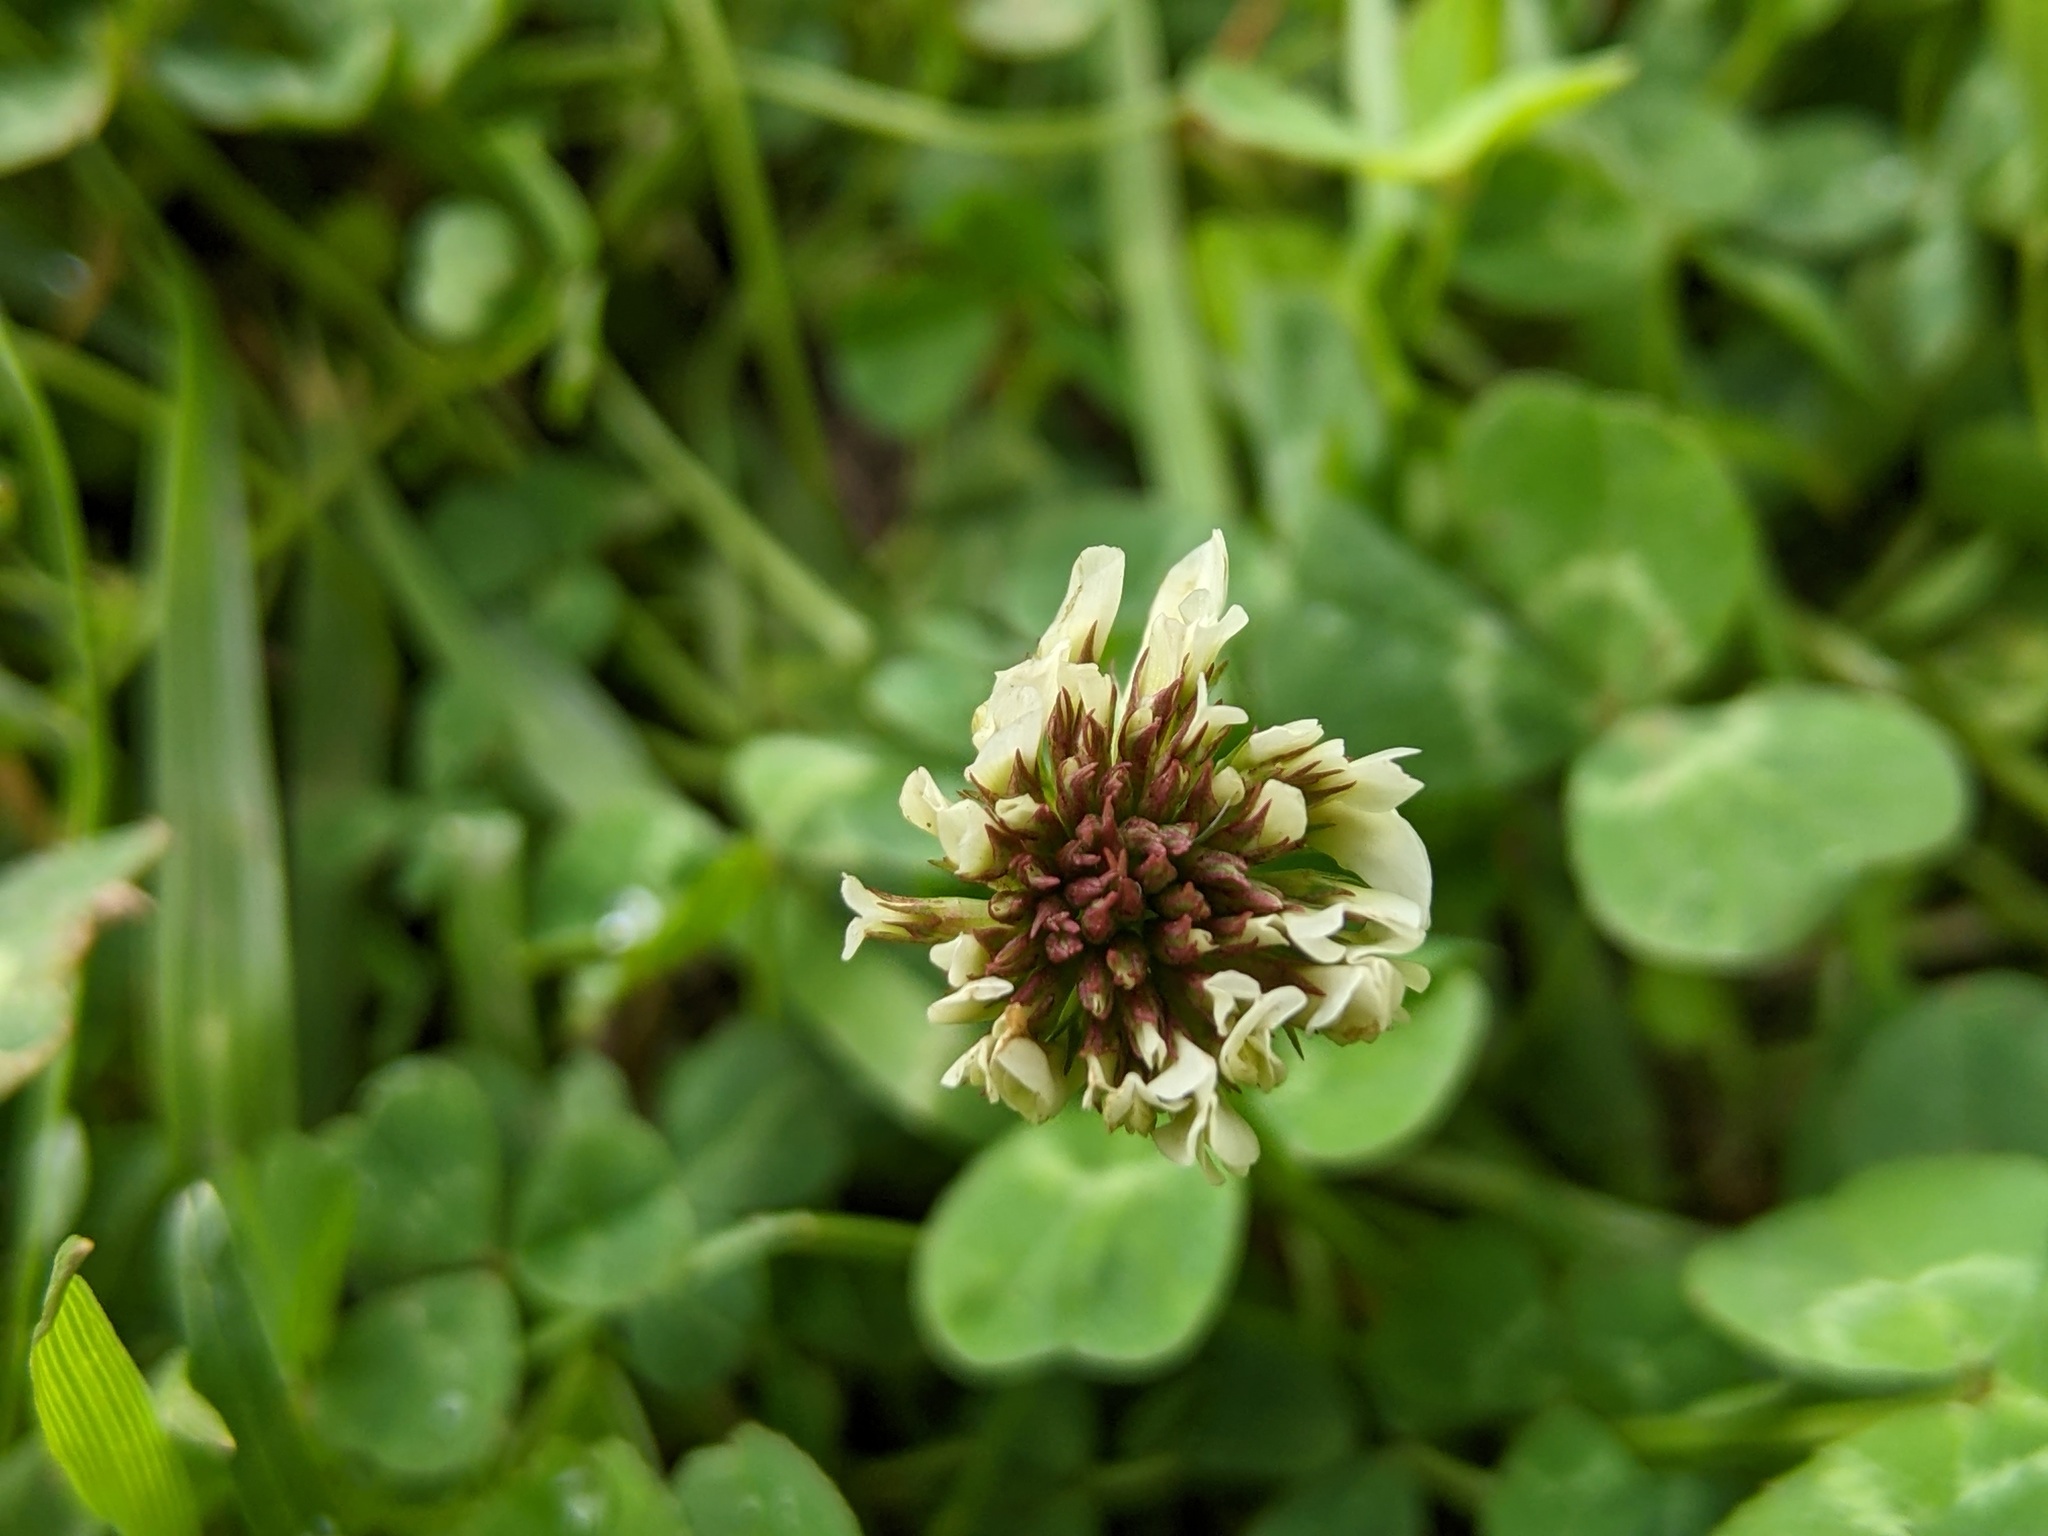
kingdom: Plantae
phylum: Tracheophyta
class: Magnoliopsida
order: Fabales
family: Fabaceae
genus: Trifolium
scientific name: Trifolium repens
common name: White clover
